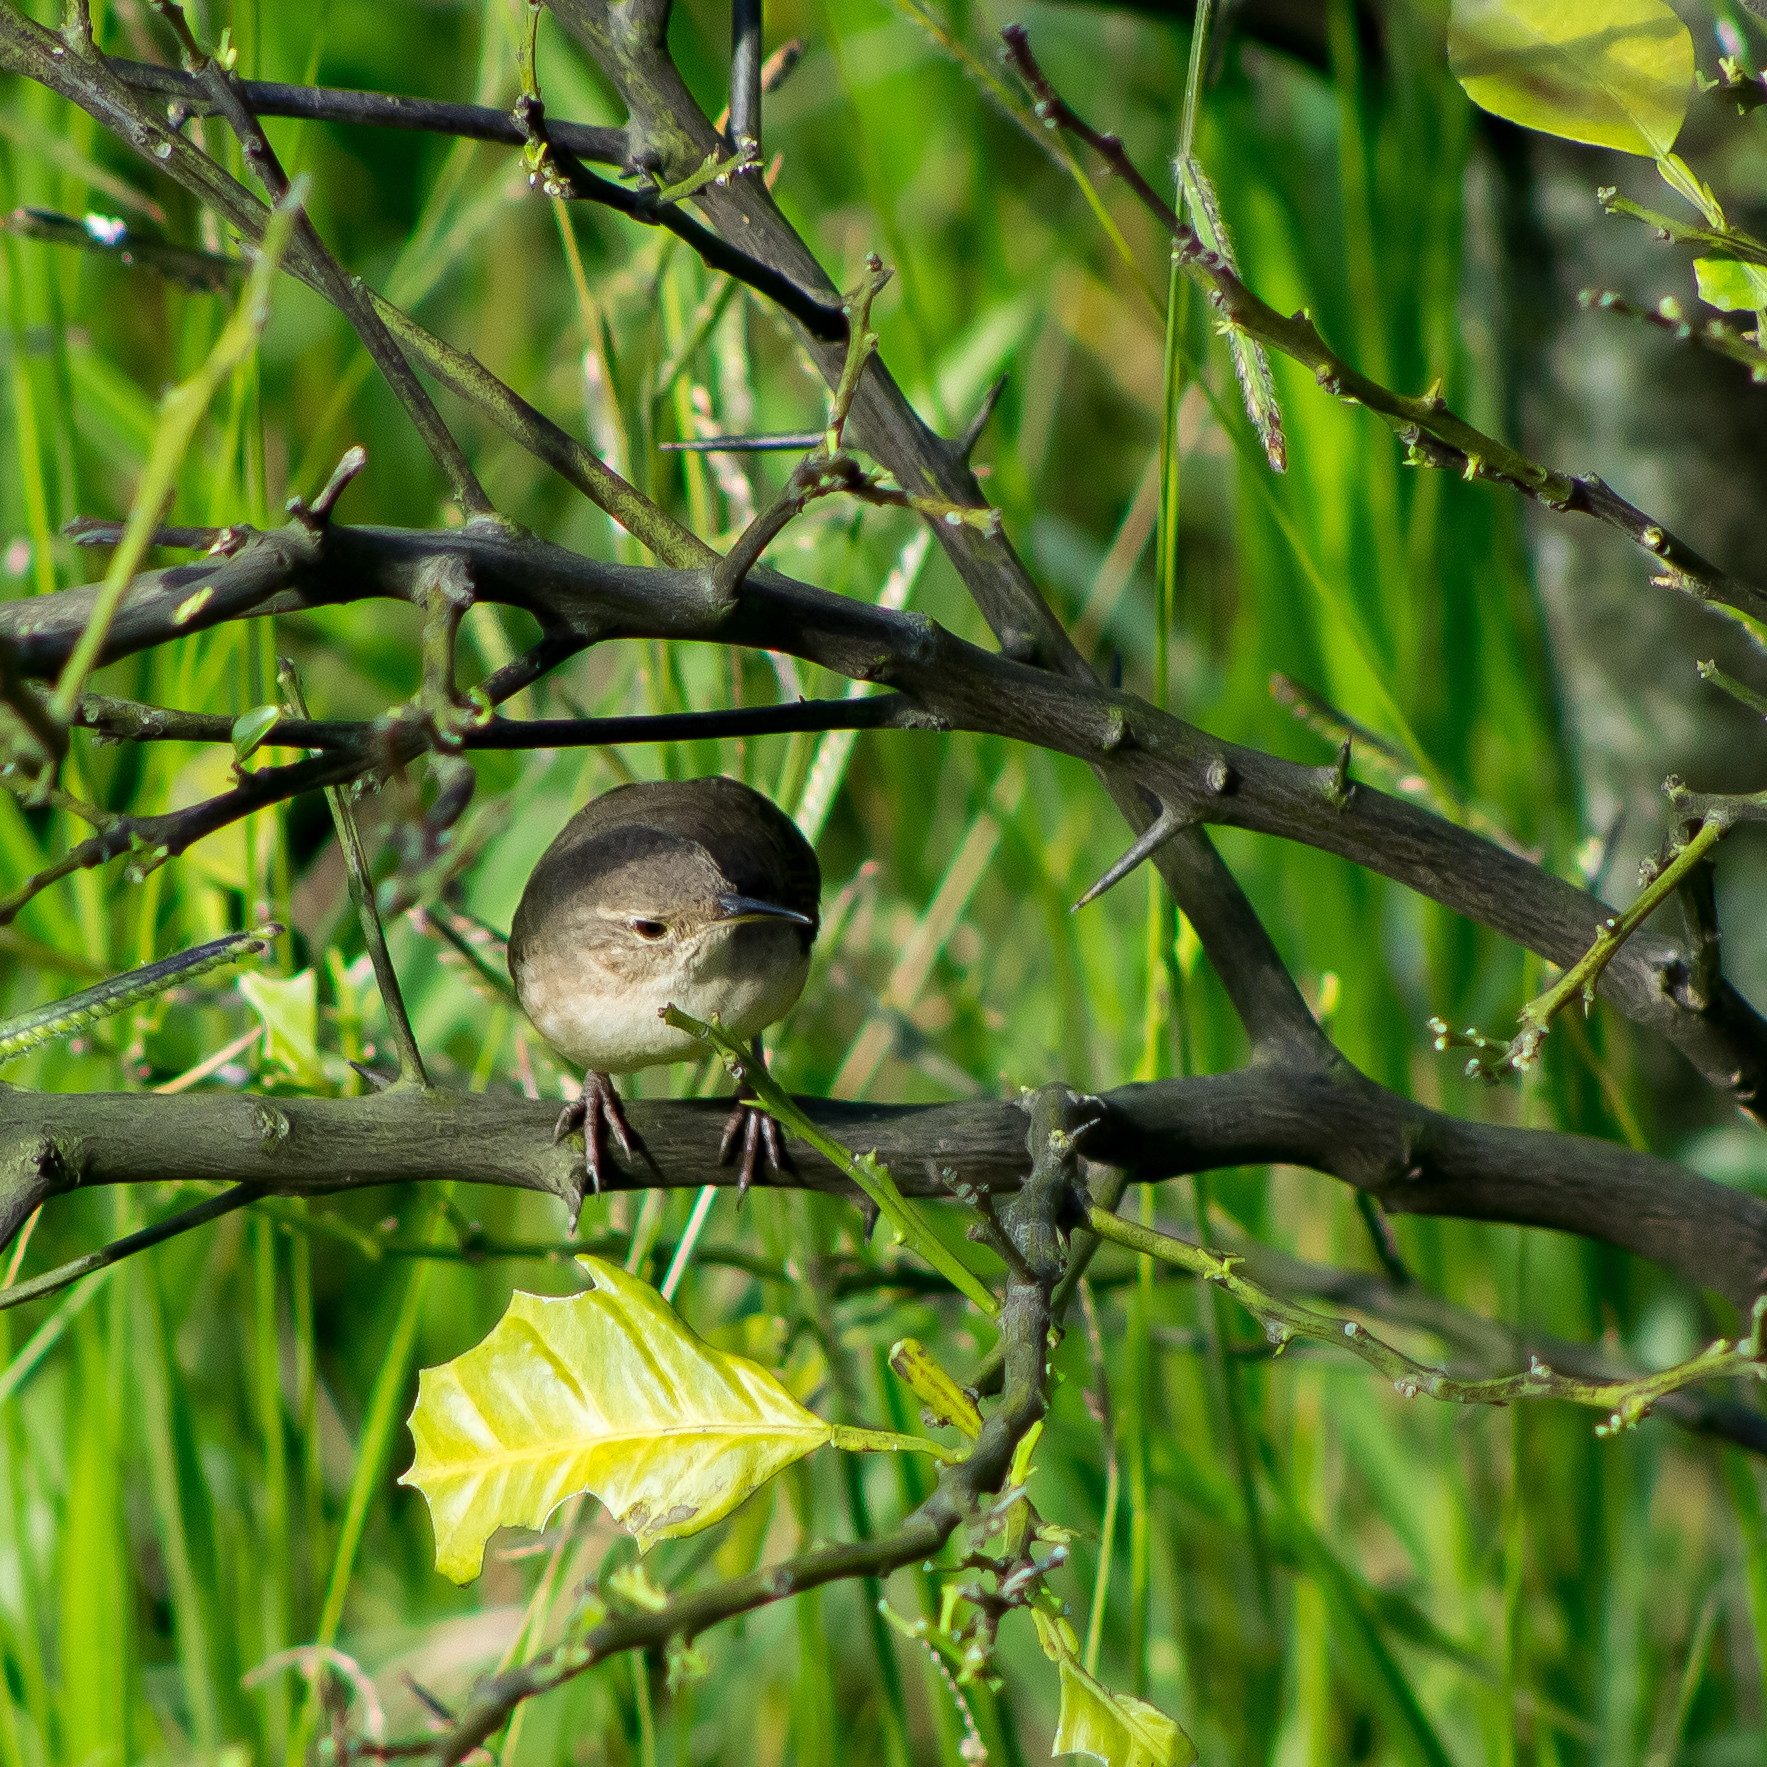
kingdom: Animalia
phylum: Chordata
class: Aves
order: Passeriformes
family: Troglodytidae
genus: Troglodytes
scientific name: Troglodytes aedon
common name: House wren
